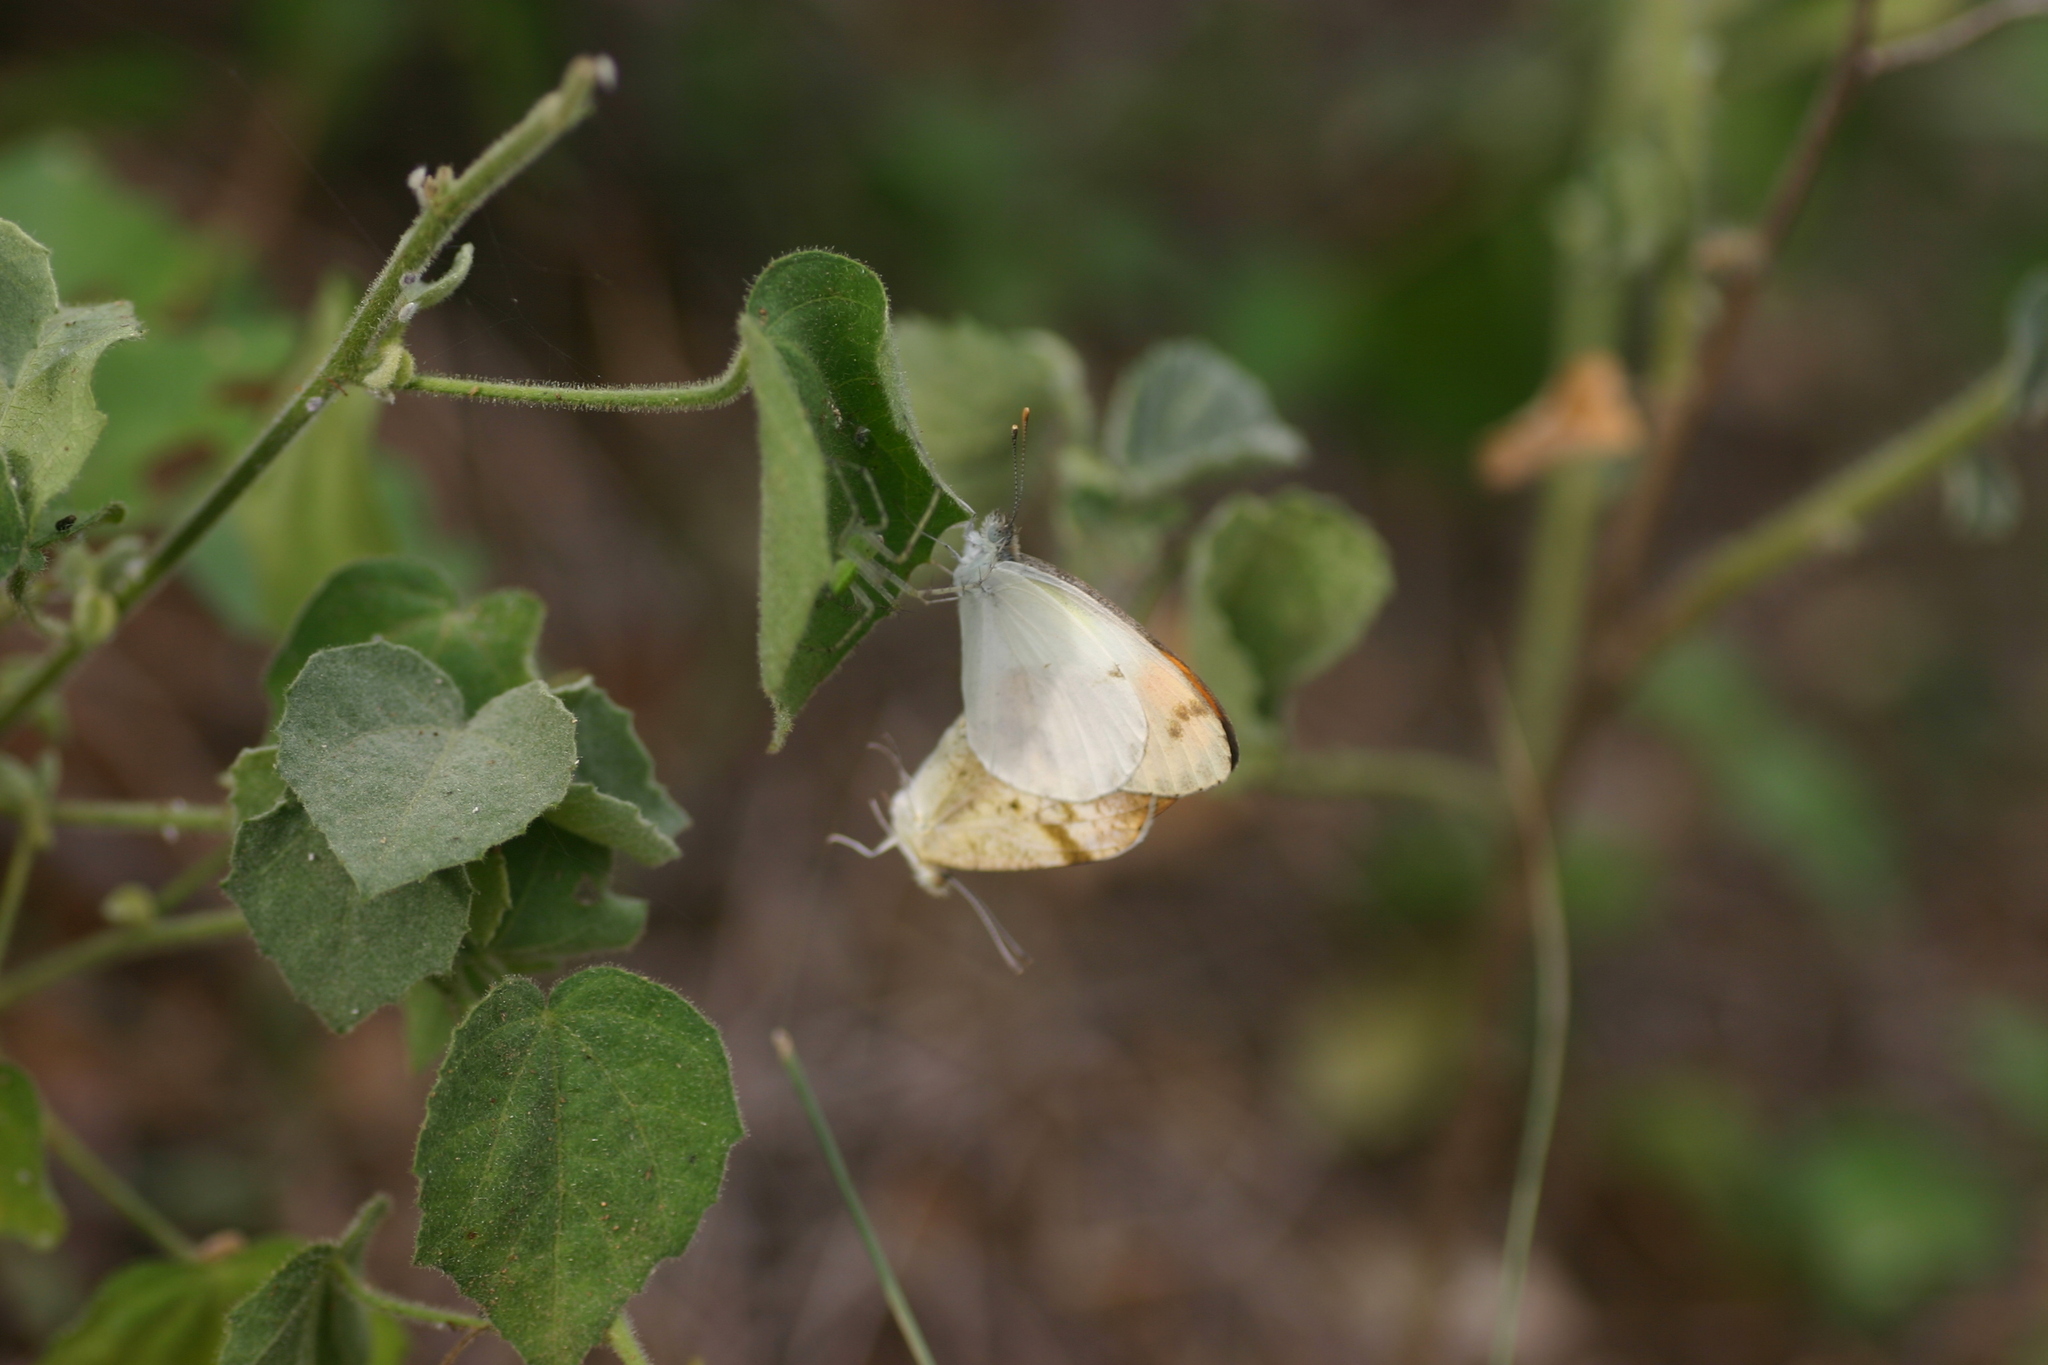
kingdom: Animalia
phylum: Arthropoda
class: Insecta
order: Lepidoptera
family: Pieridae
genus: Colotis
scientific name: Colotis aurora
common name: Plain orange-tip
